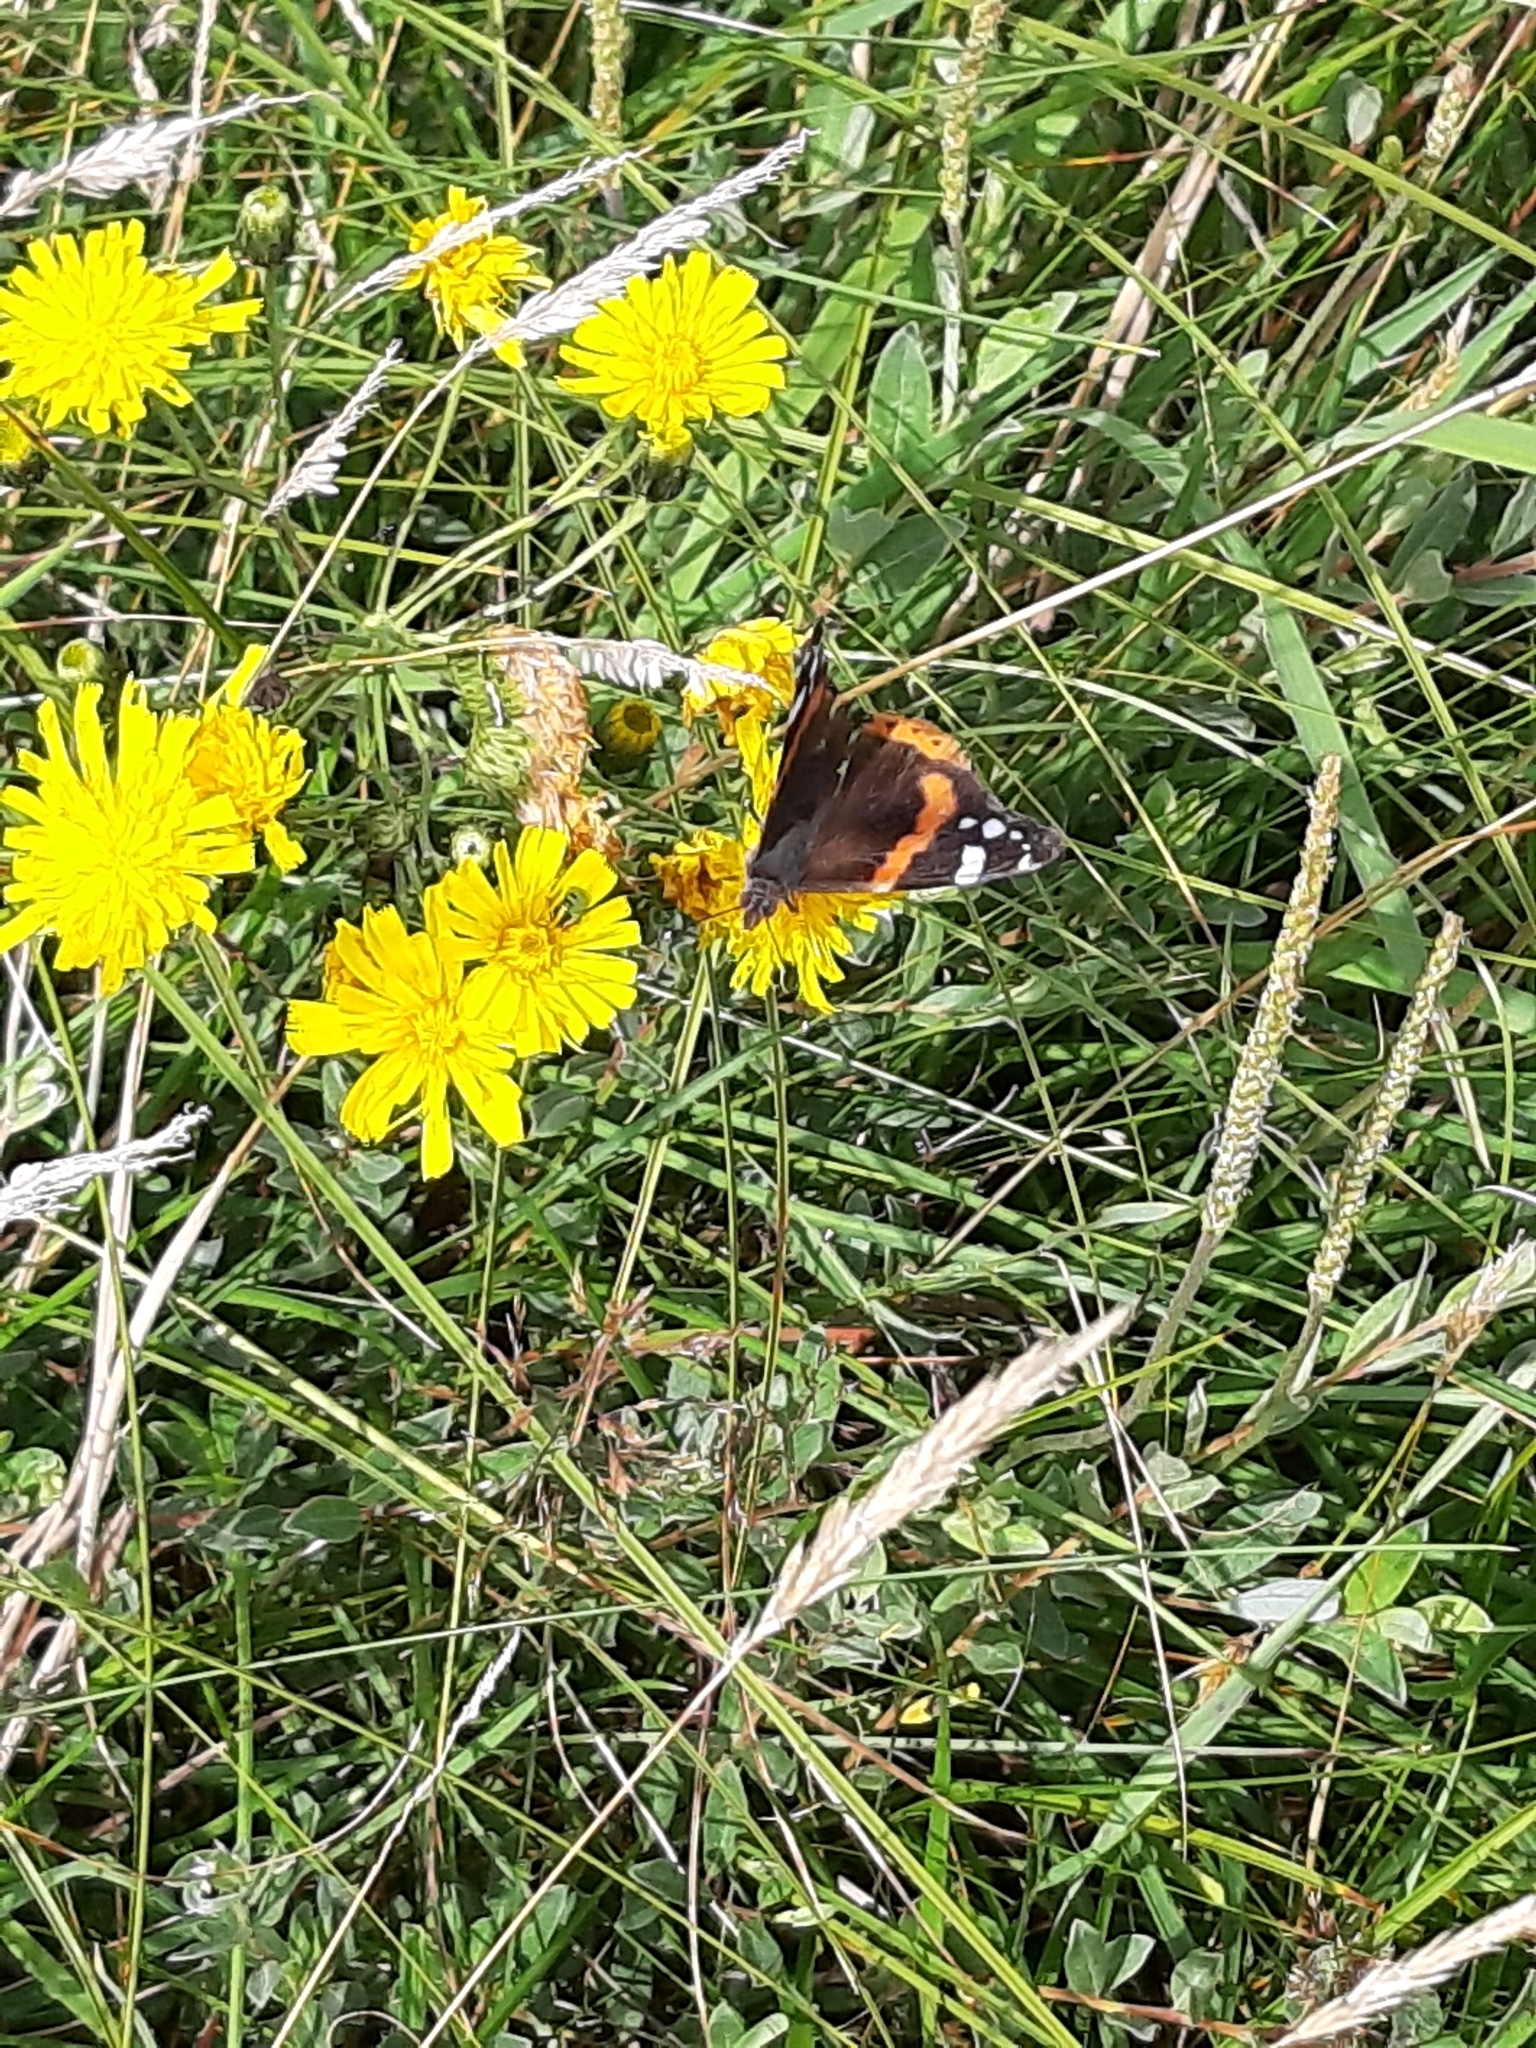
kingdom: Animalia
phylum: Arthropoda
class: Insecta
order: Lepidoptera
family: Nymphalidae
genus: Vanessa
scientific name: Vanessa atalanta
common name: Red admiral
